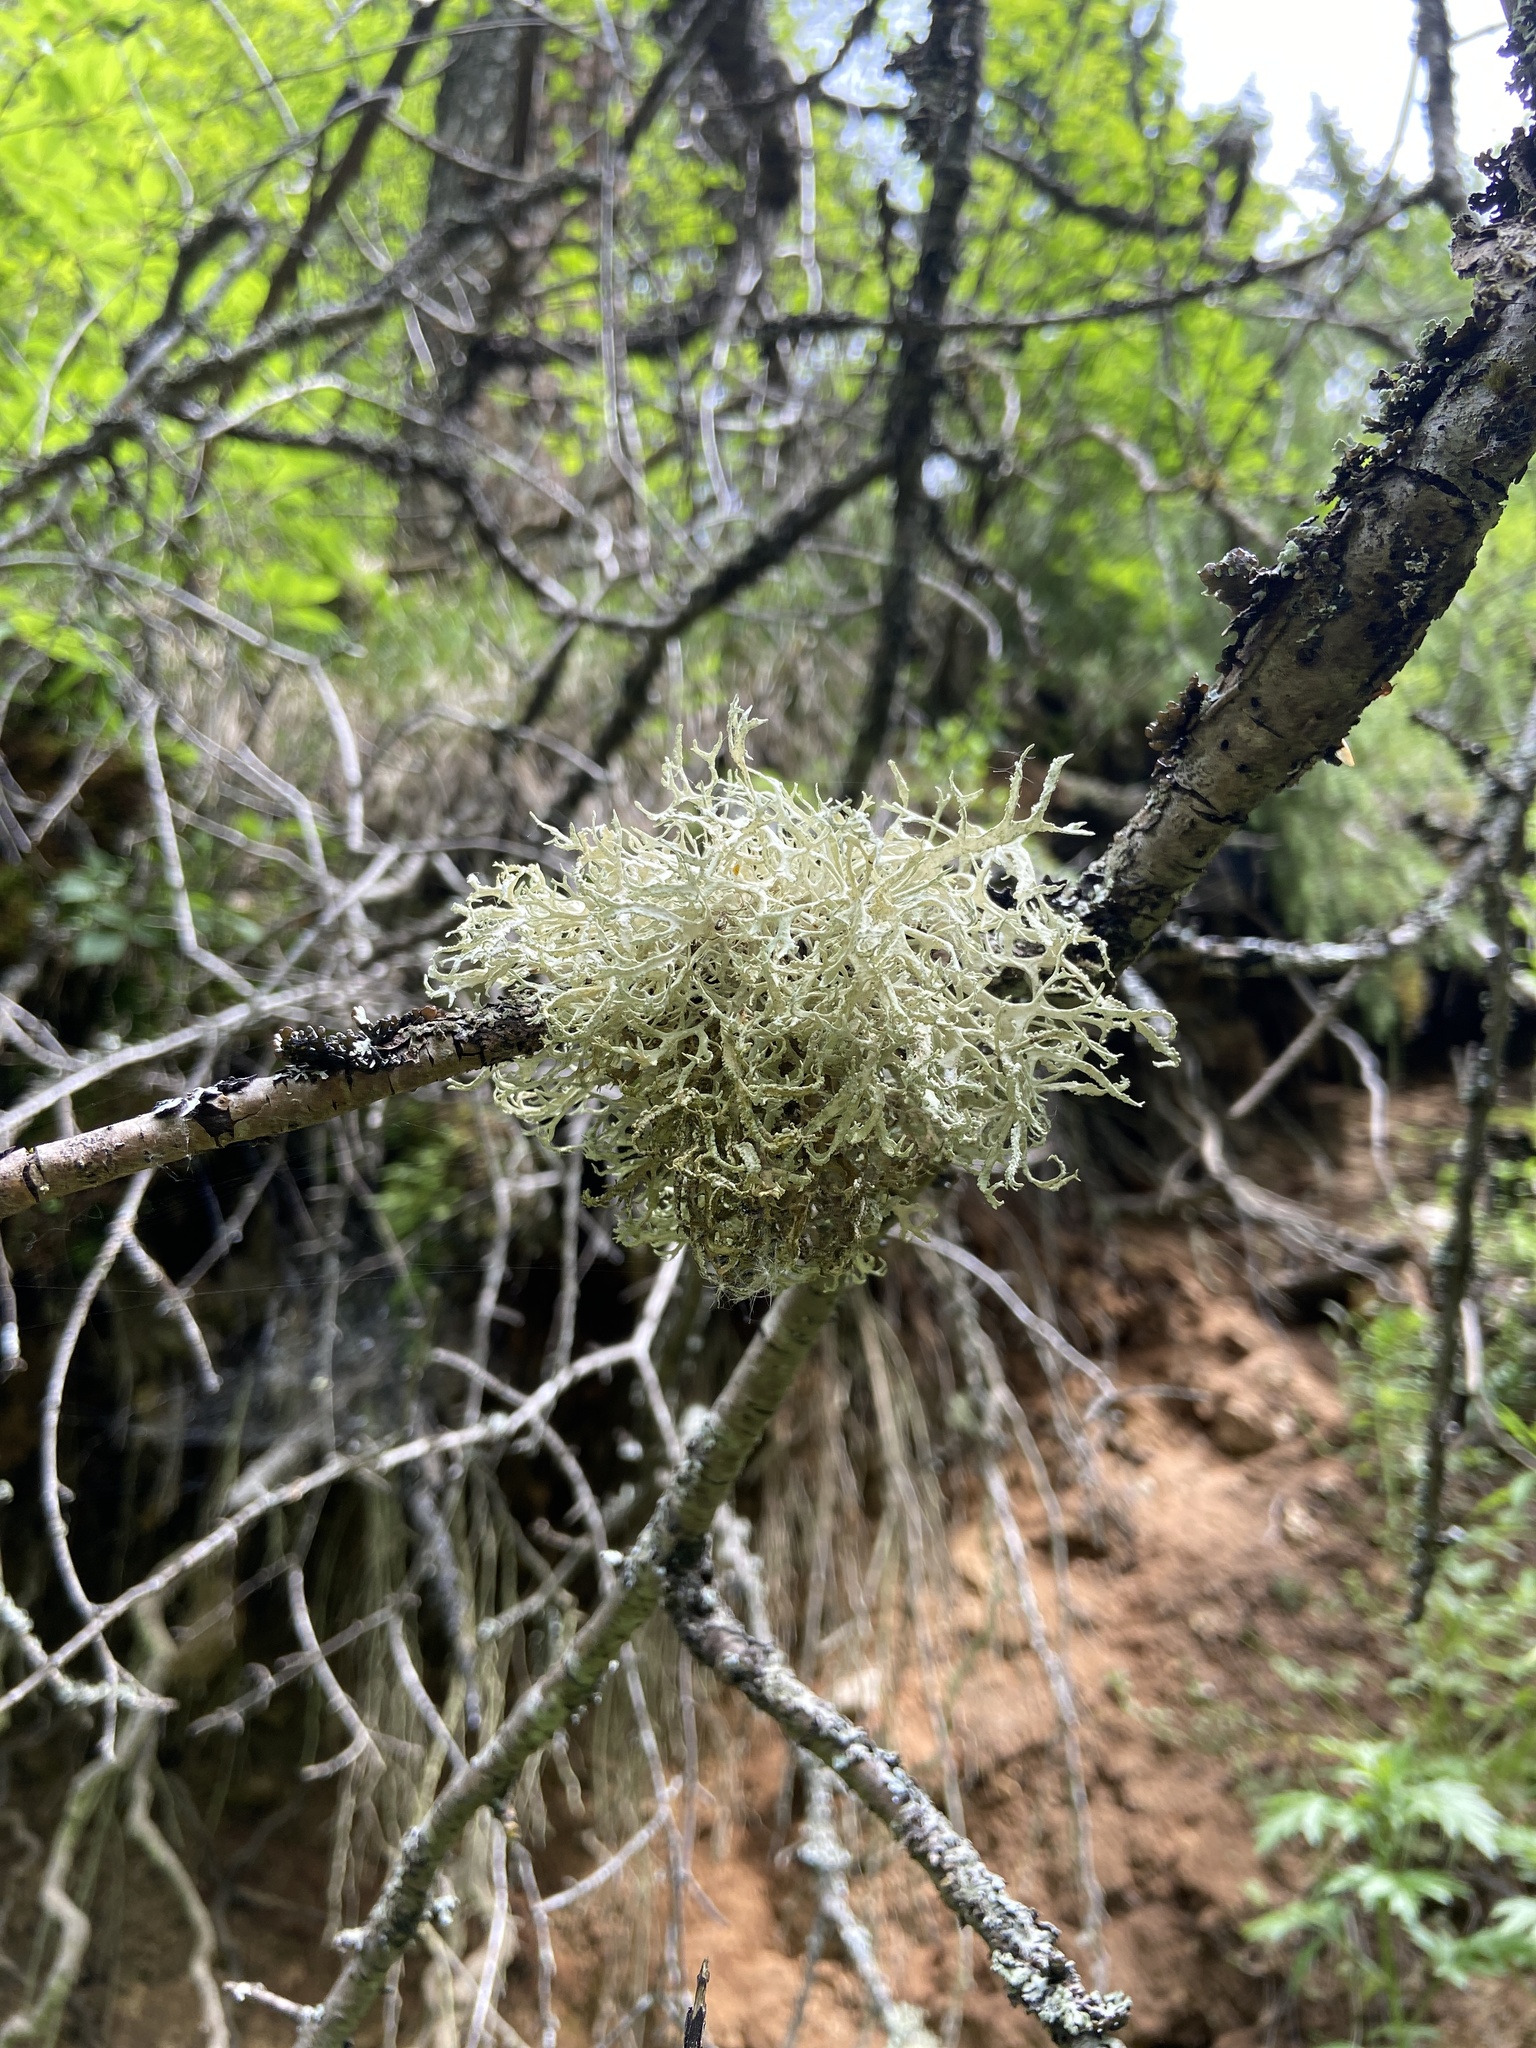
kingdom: Fungi
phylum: Ascomycota
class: Lecanoromycetes
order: Lecanorales
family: Parmeliaceae
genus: Evernia
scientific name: Evernia prunastri
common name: Oak moss
